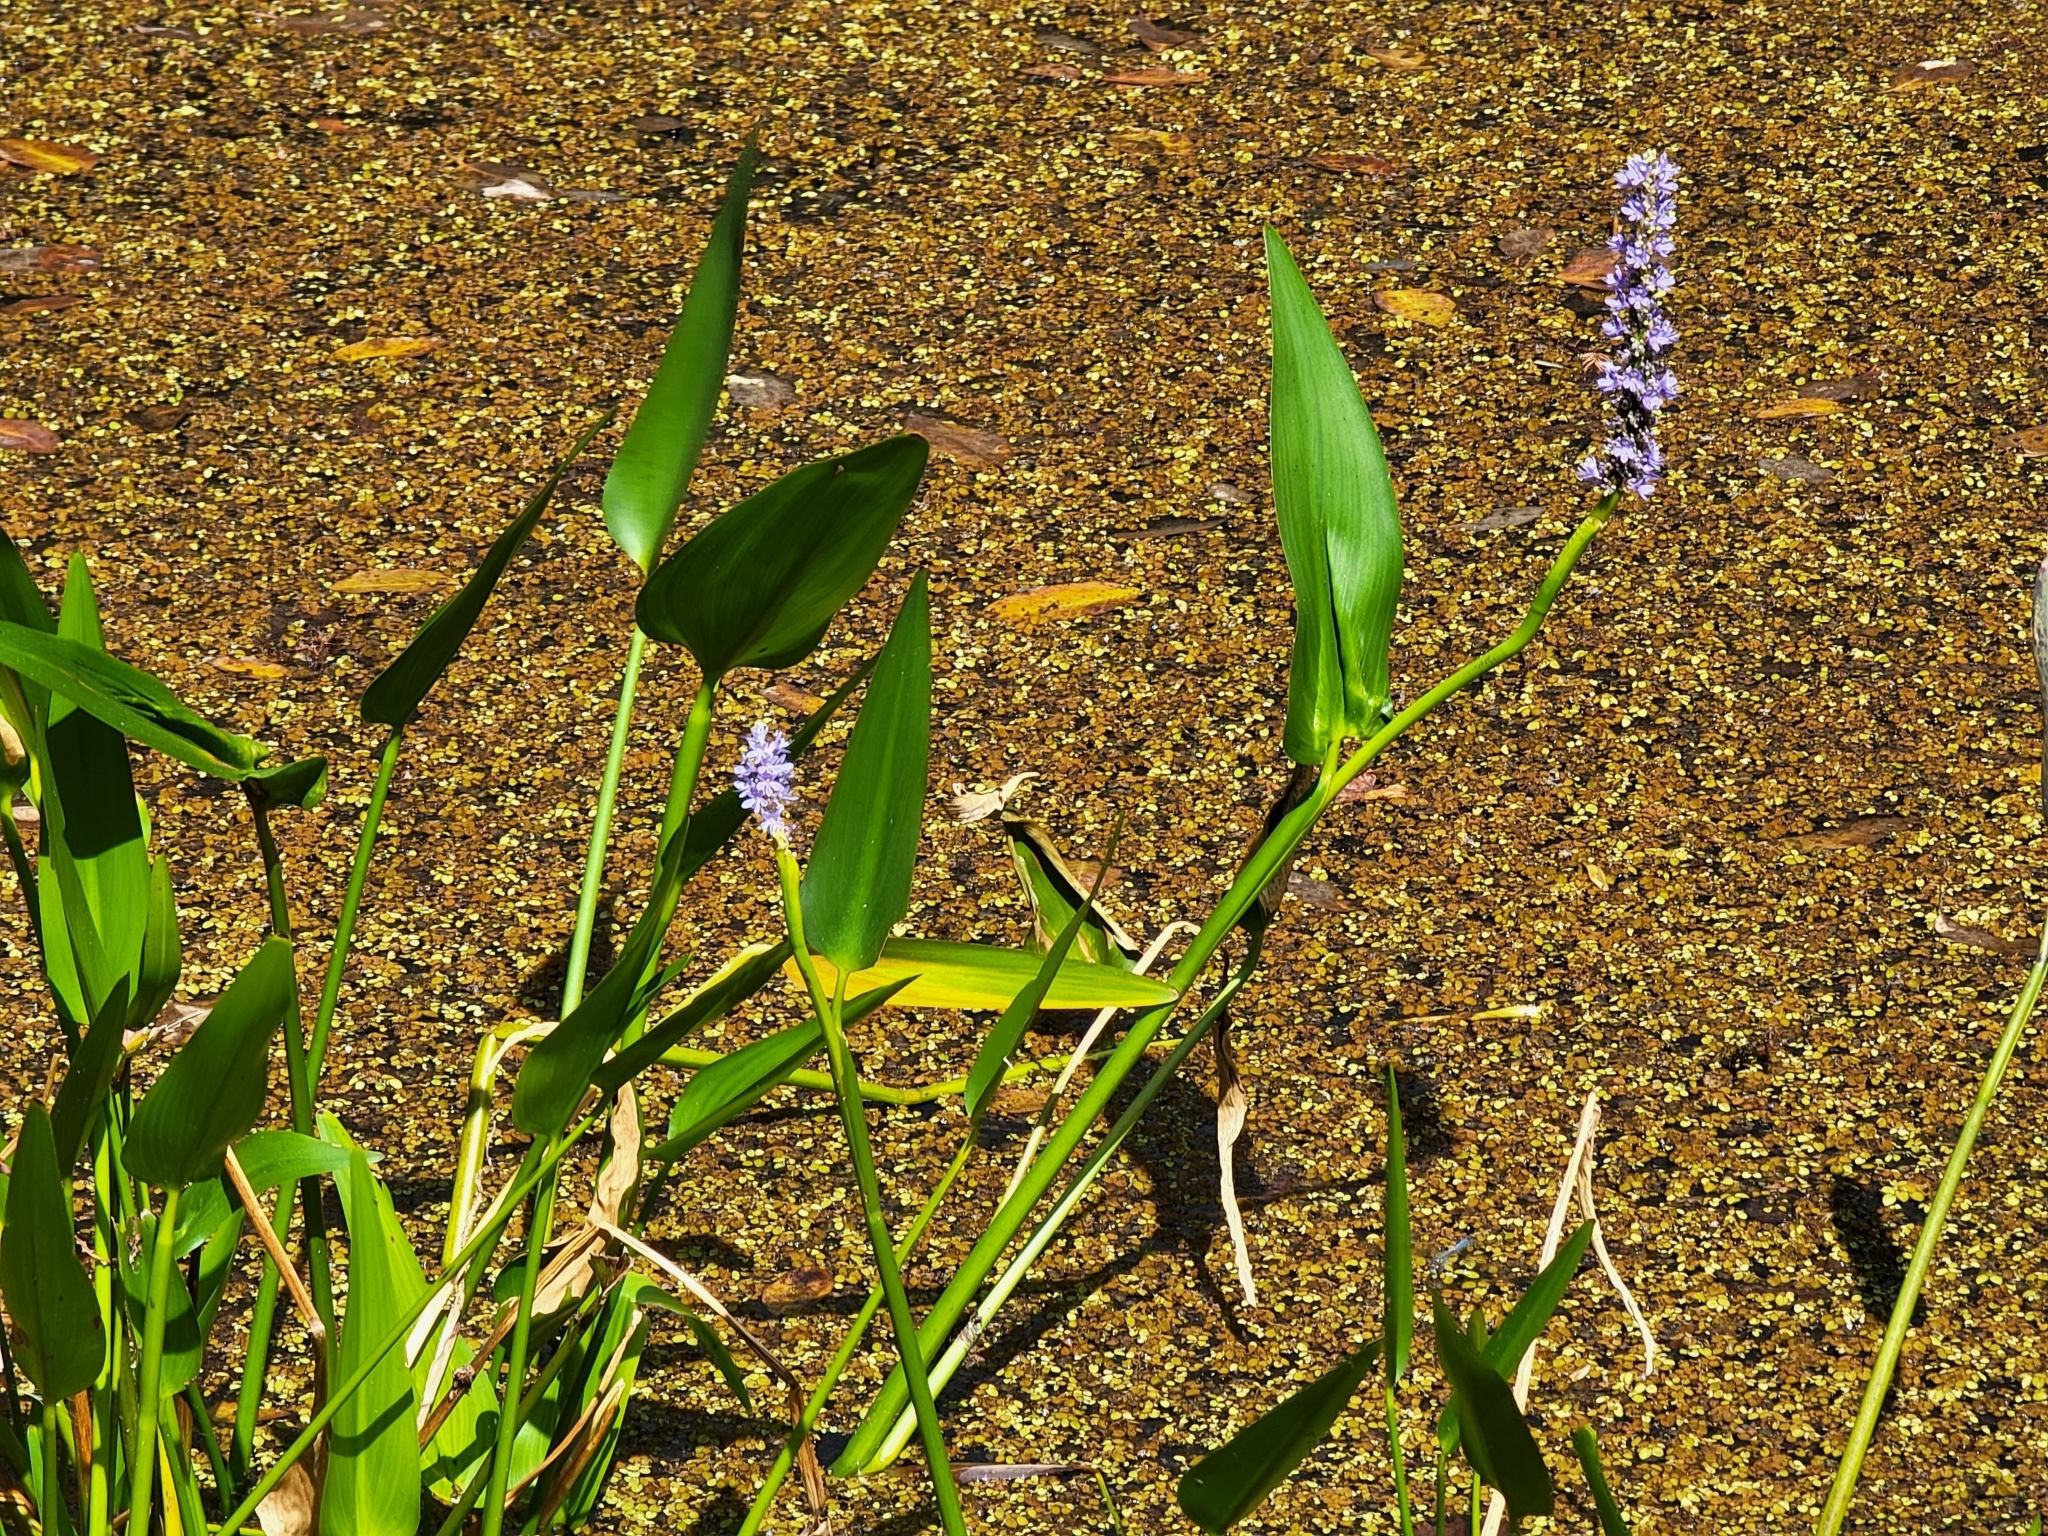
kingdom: Plantae
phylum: Tracheophyta
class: Liliopsida
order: Commelinales
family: Pontederiaceae
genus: Pontederia
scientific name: Pontederia cordata
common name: Pickerelweed
